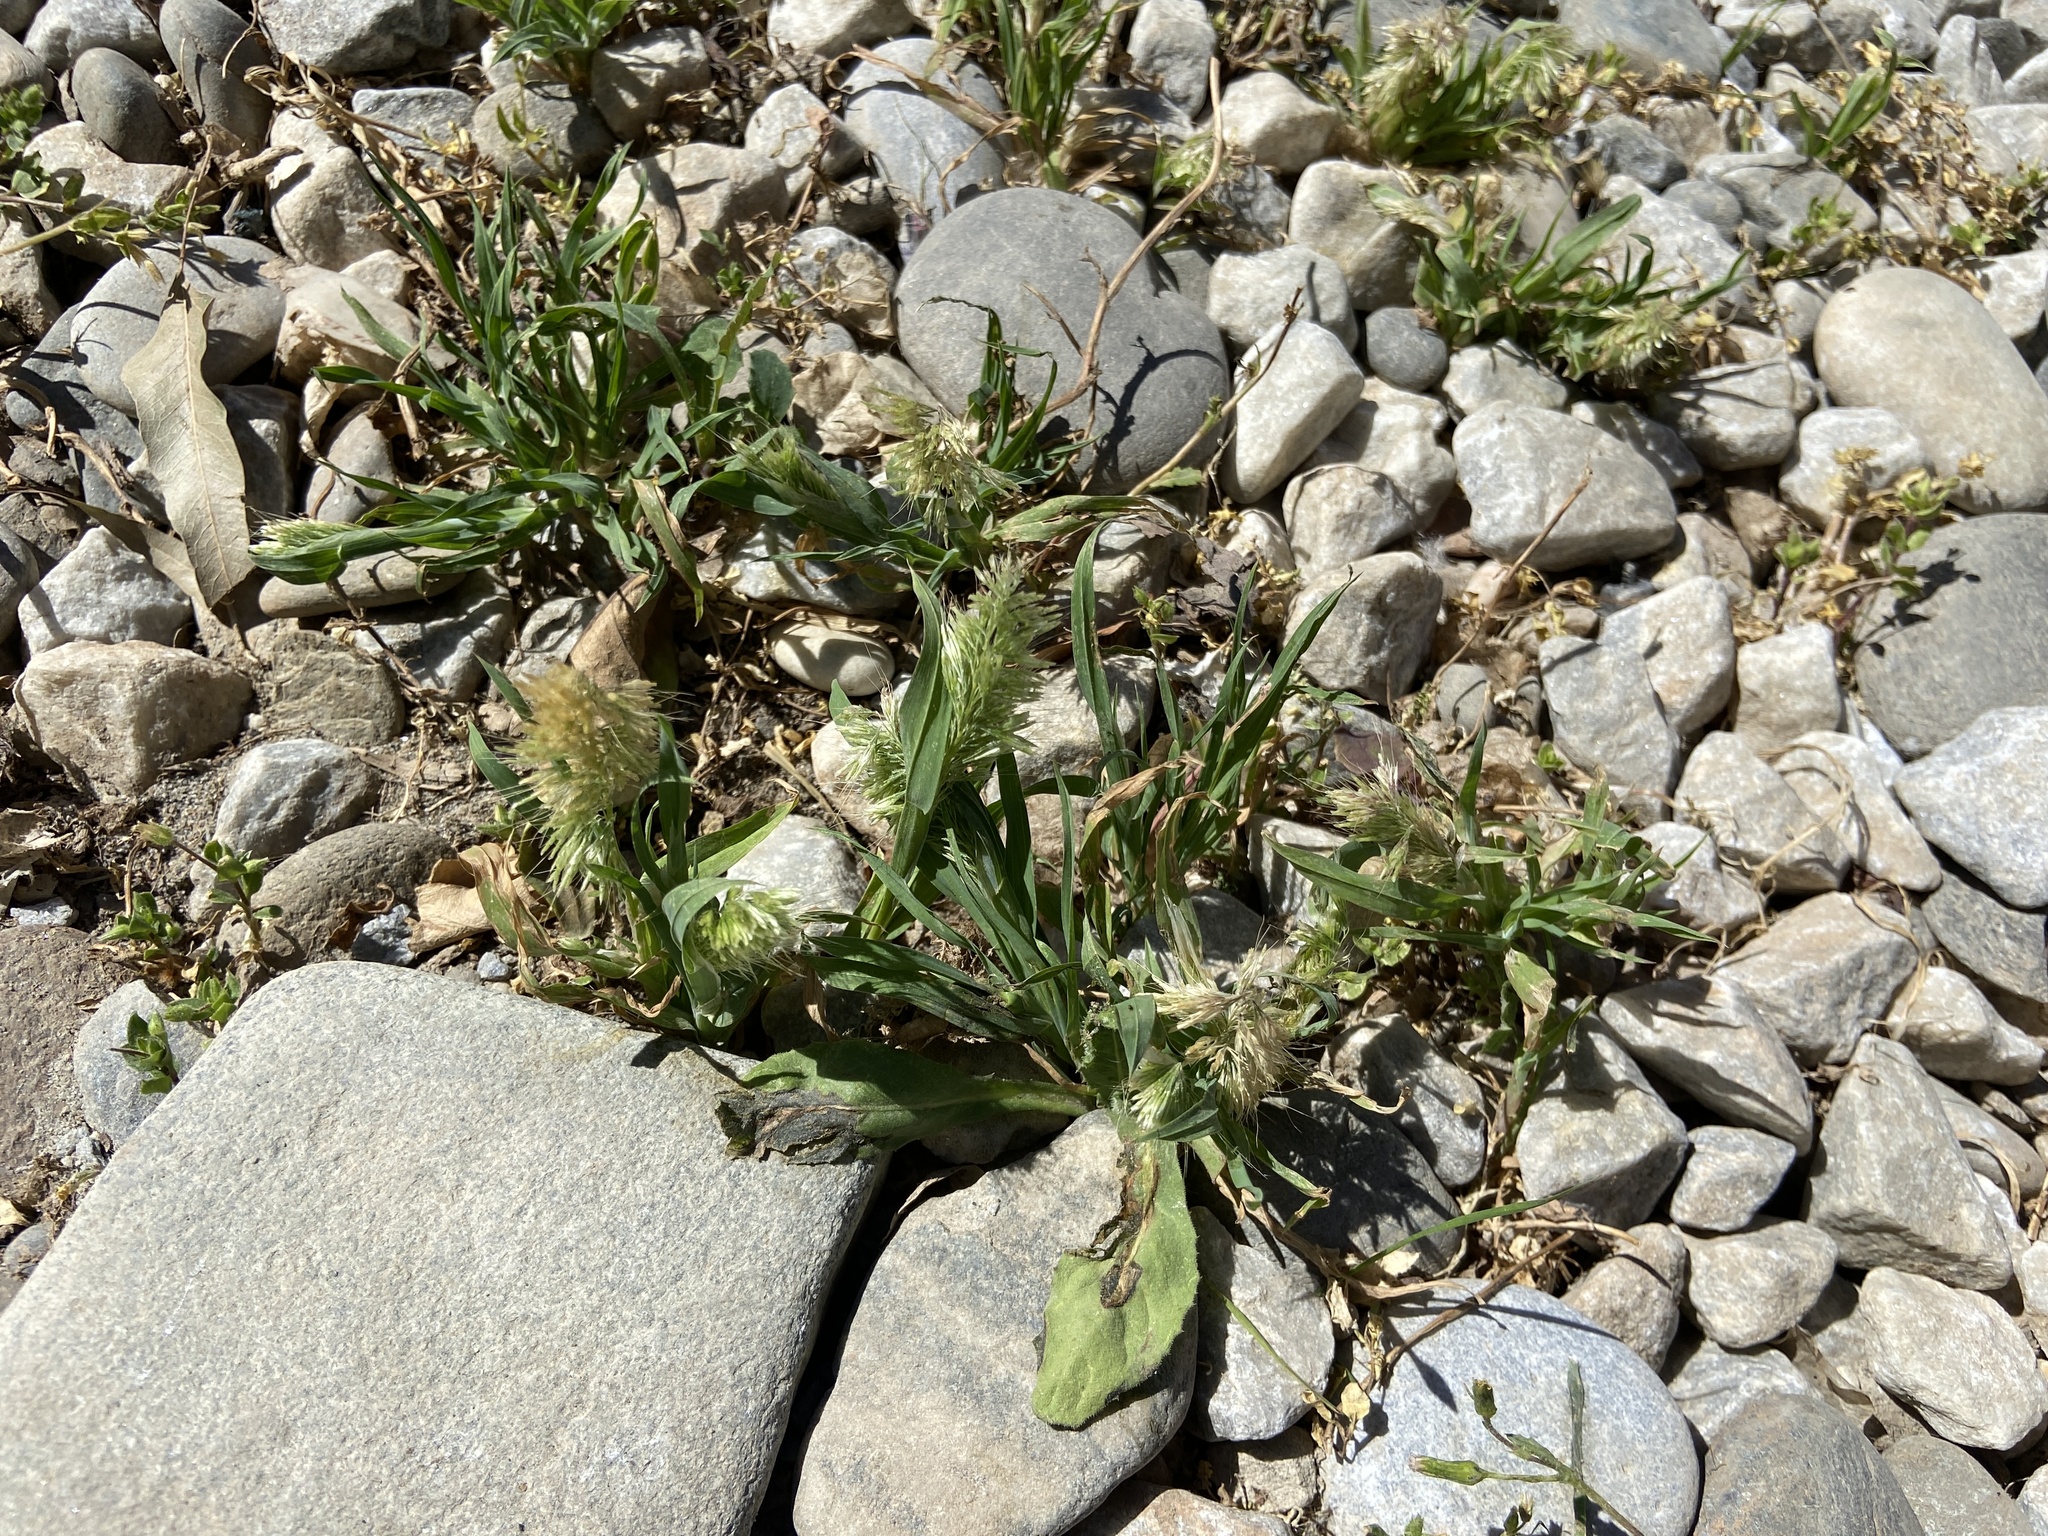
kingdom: Plantae
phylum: Tracheophyta
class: Liliopsida
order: Poales
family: Poaceae
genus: Lamarckia
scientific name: Lamarckia aurea
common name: Golden dog's-tail
